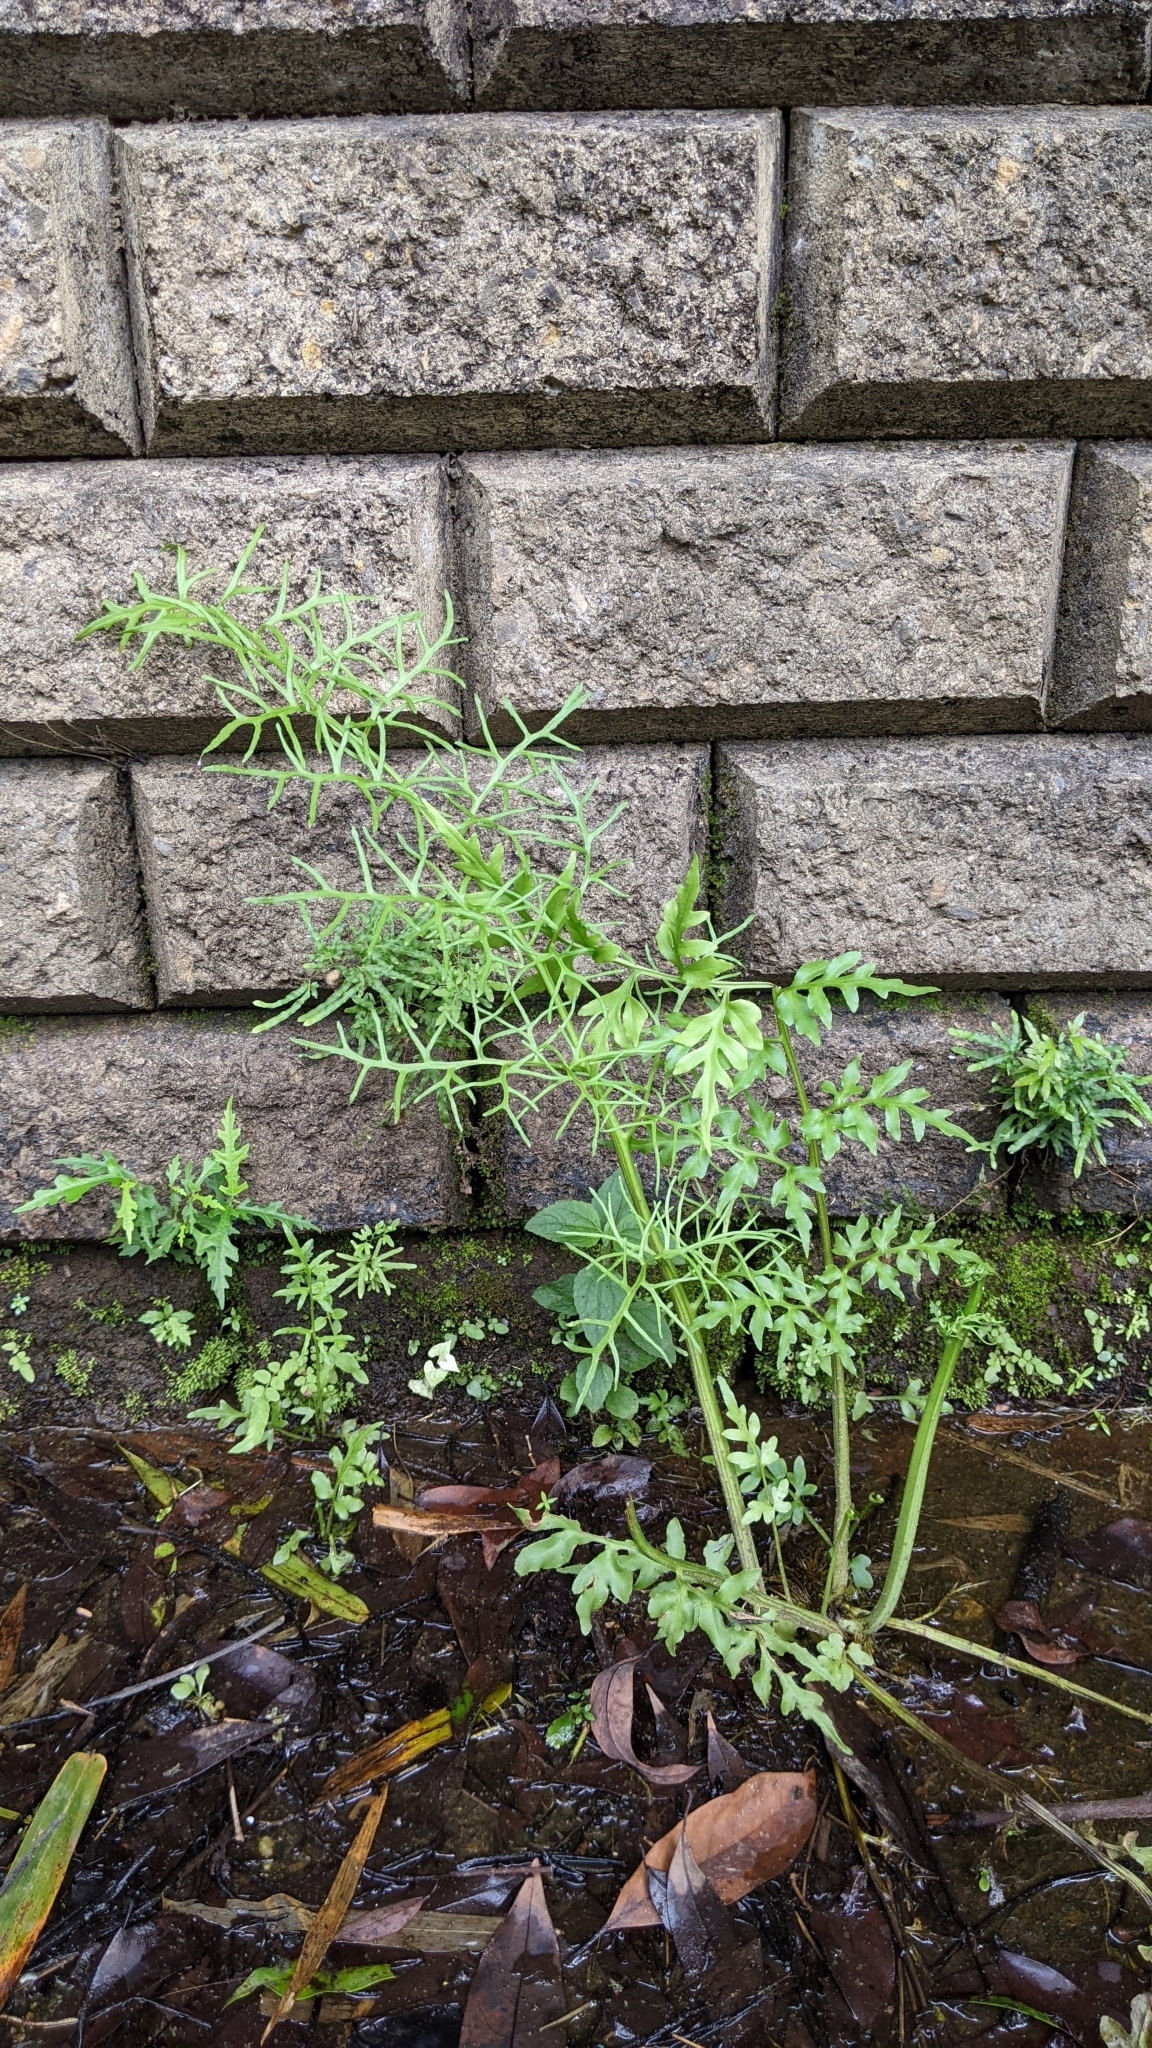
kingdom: Plantae
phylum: Tracheophyta
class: Polypodiopsida
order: Polypodiales
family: Pteridaceae
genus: Ceratopteris
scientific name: Ceratopteris thalictroides
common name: Water fern
